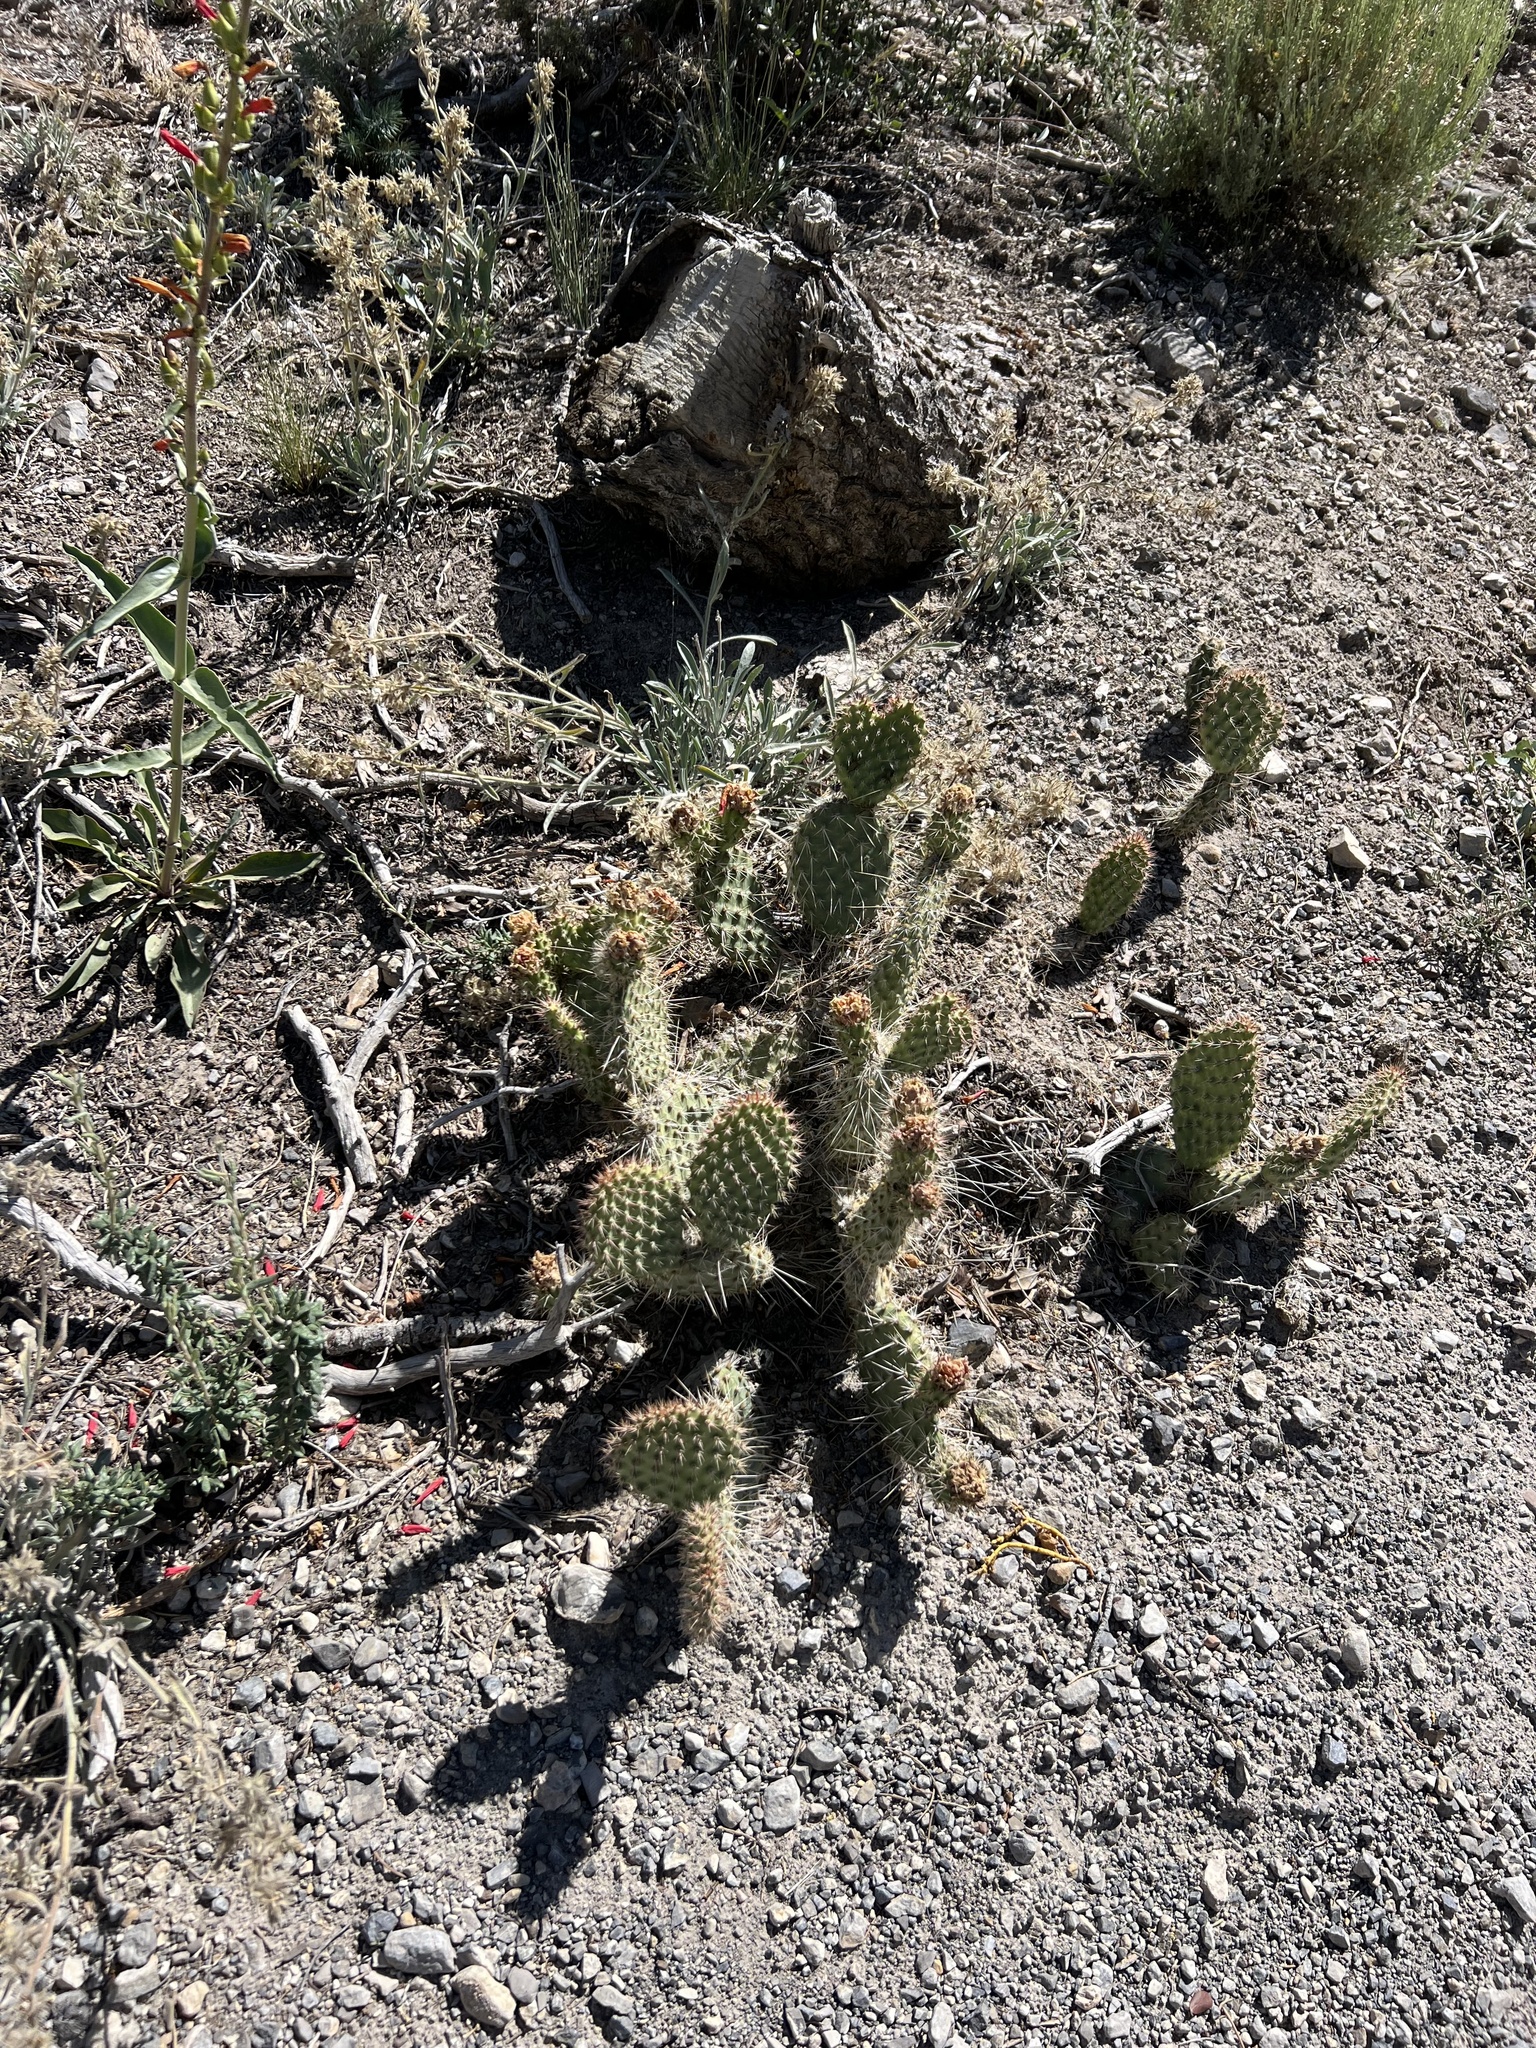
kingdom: Plantae
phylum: Tracheophyta
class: Magnoliopsida
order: Caryophyllales
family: Cactaceae
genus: Opuntia
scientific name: Opuntia polyacantha
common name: Plains prickly-pear
